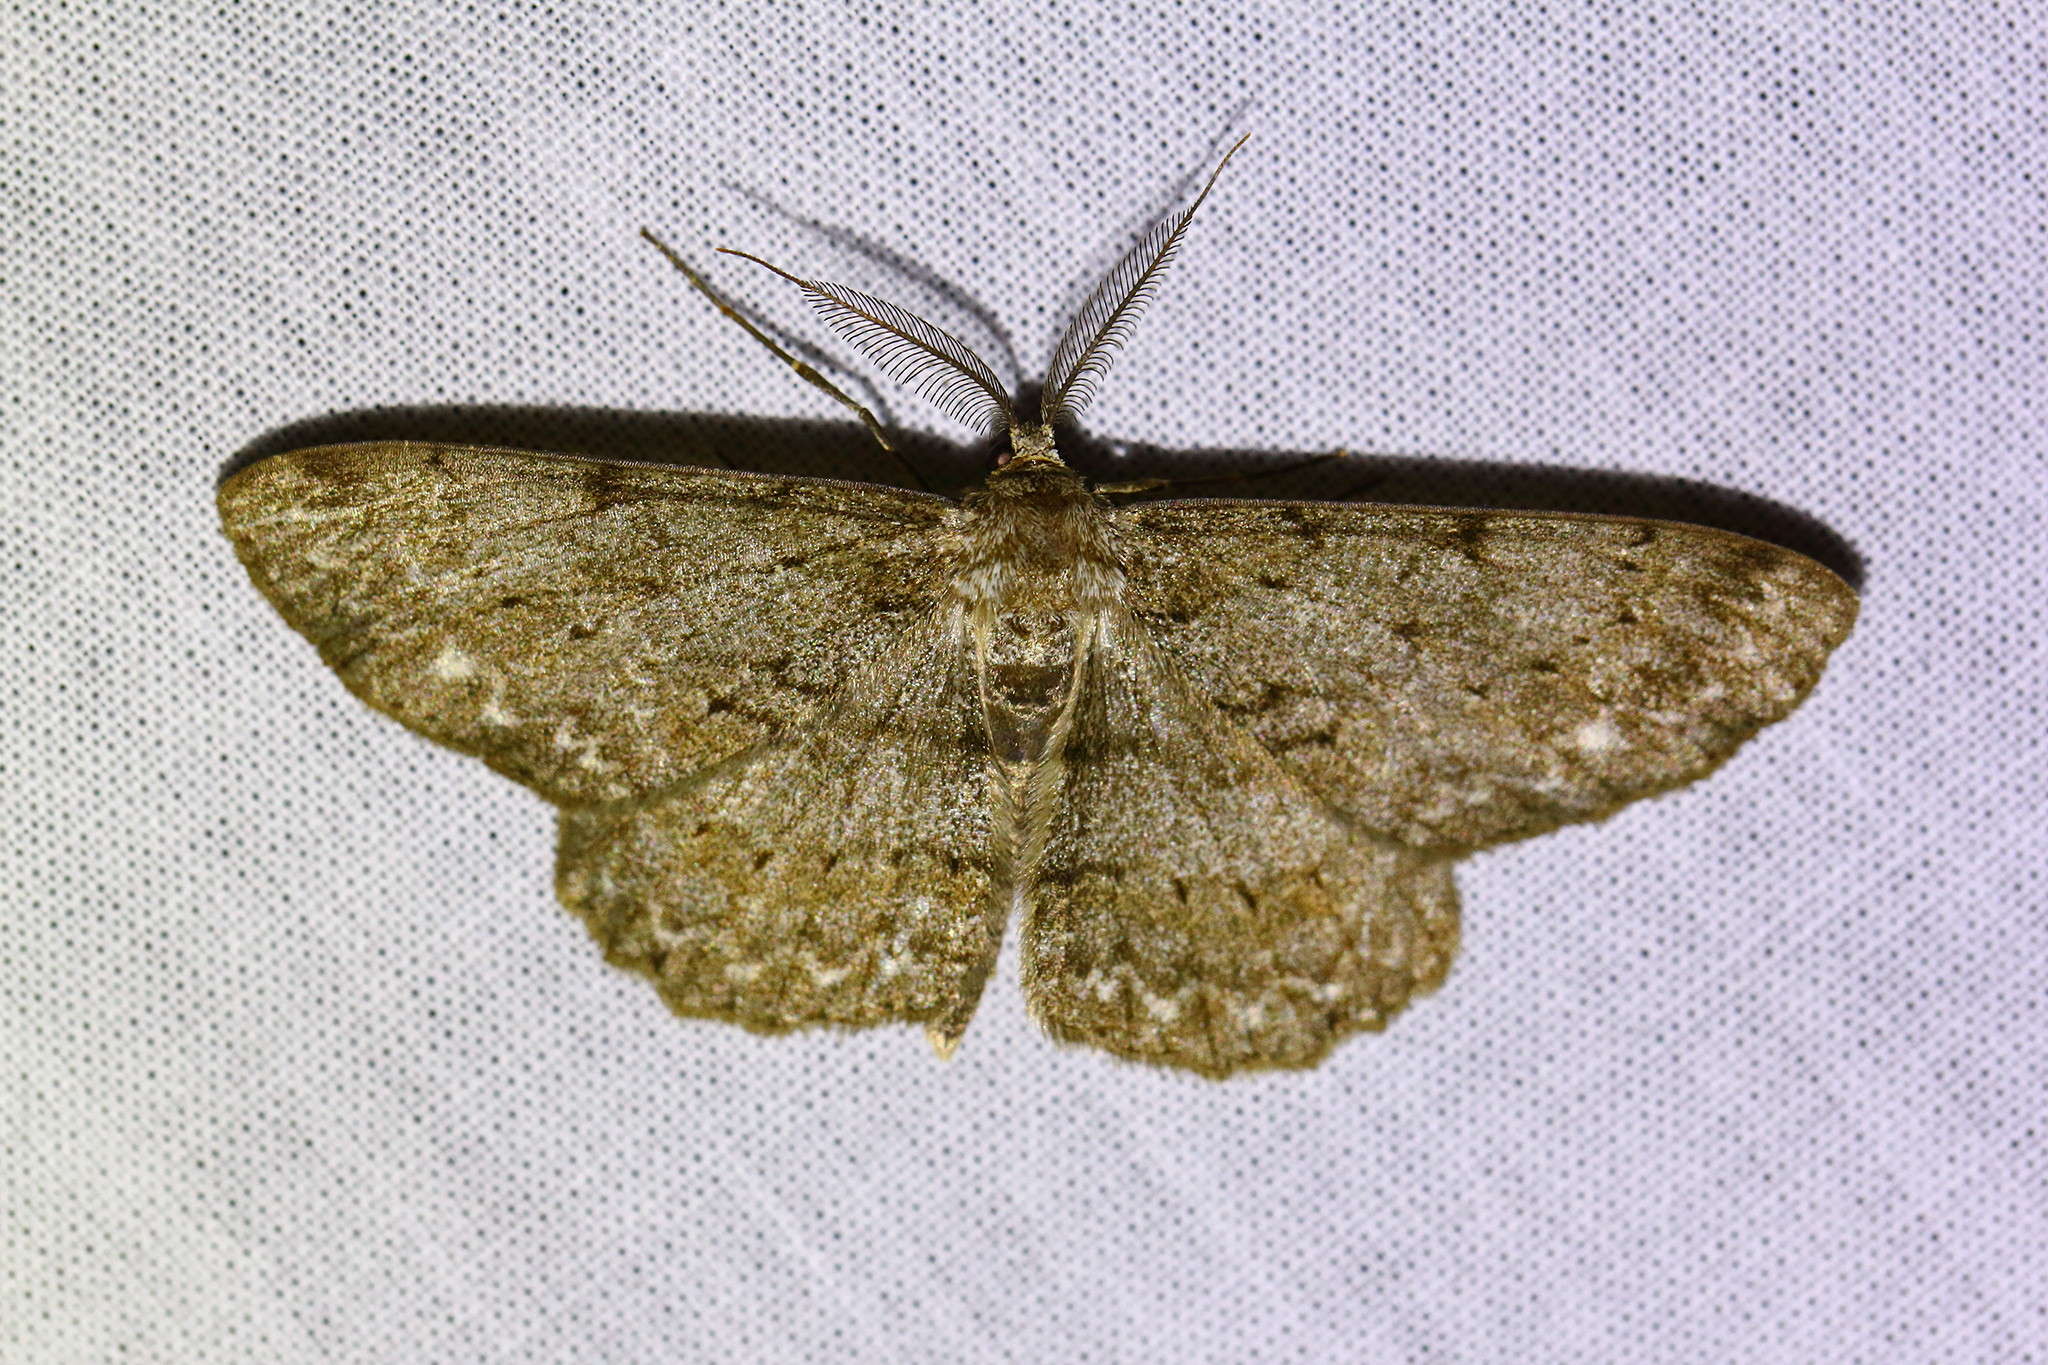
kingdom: Animalia
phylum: Arthropoda
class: Insecta
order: Lepidoptera
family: Geometridae
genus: Hypomecis
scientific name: Hypomecis punctinalis
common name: Pale oak beauty
